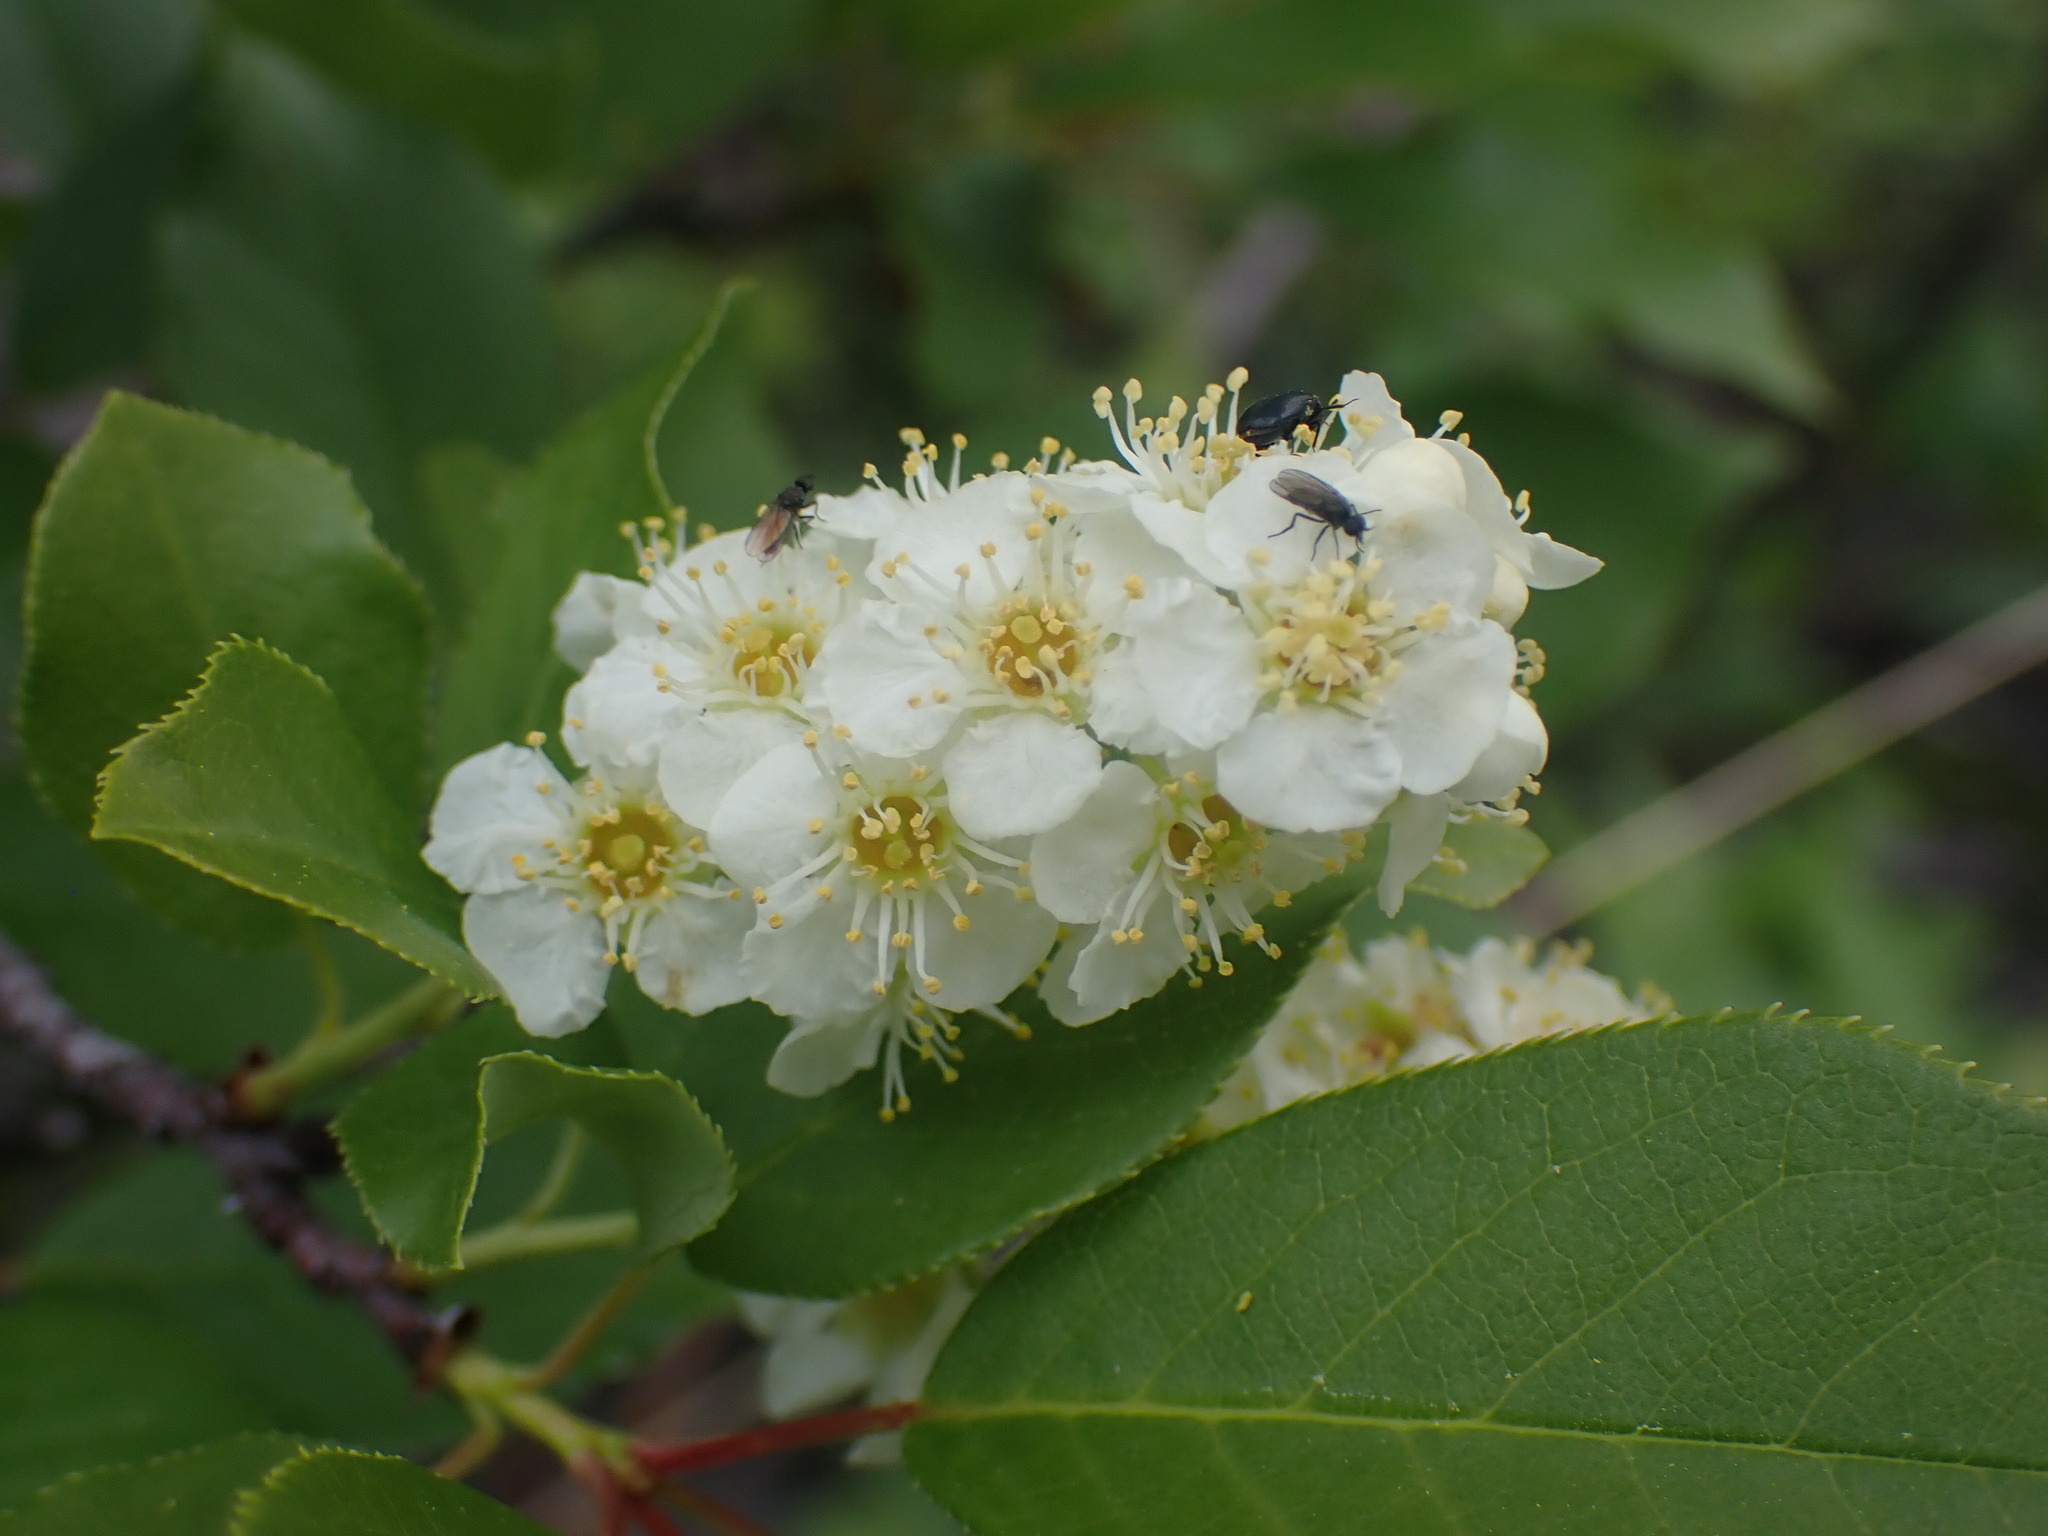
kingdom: Plantae
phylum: Tracheophyta
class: Magnoliopsida
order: Rosales
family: Rosaceae
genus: Prunus
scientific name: Prunus virginiana
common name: Chokecherry
